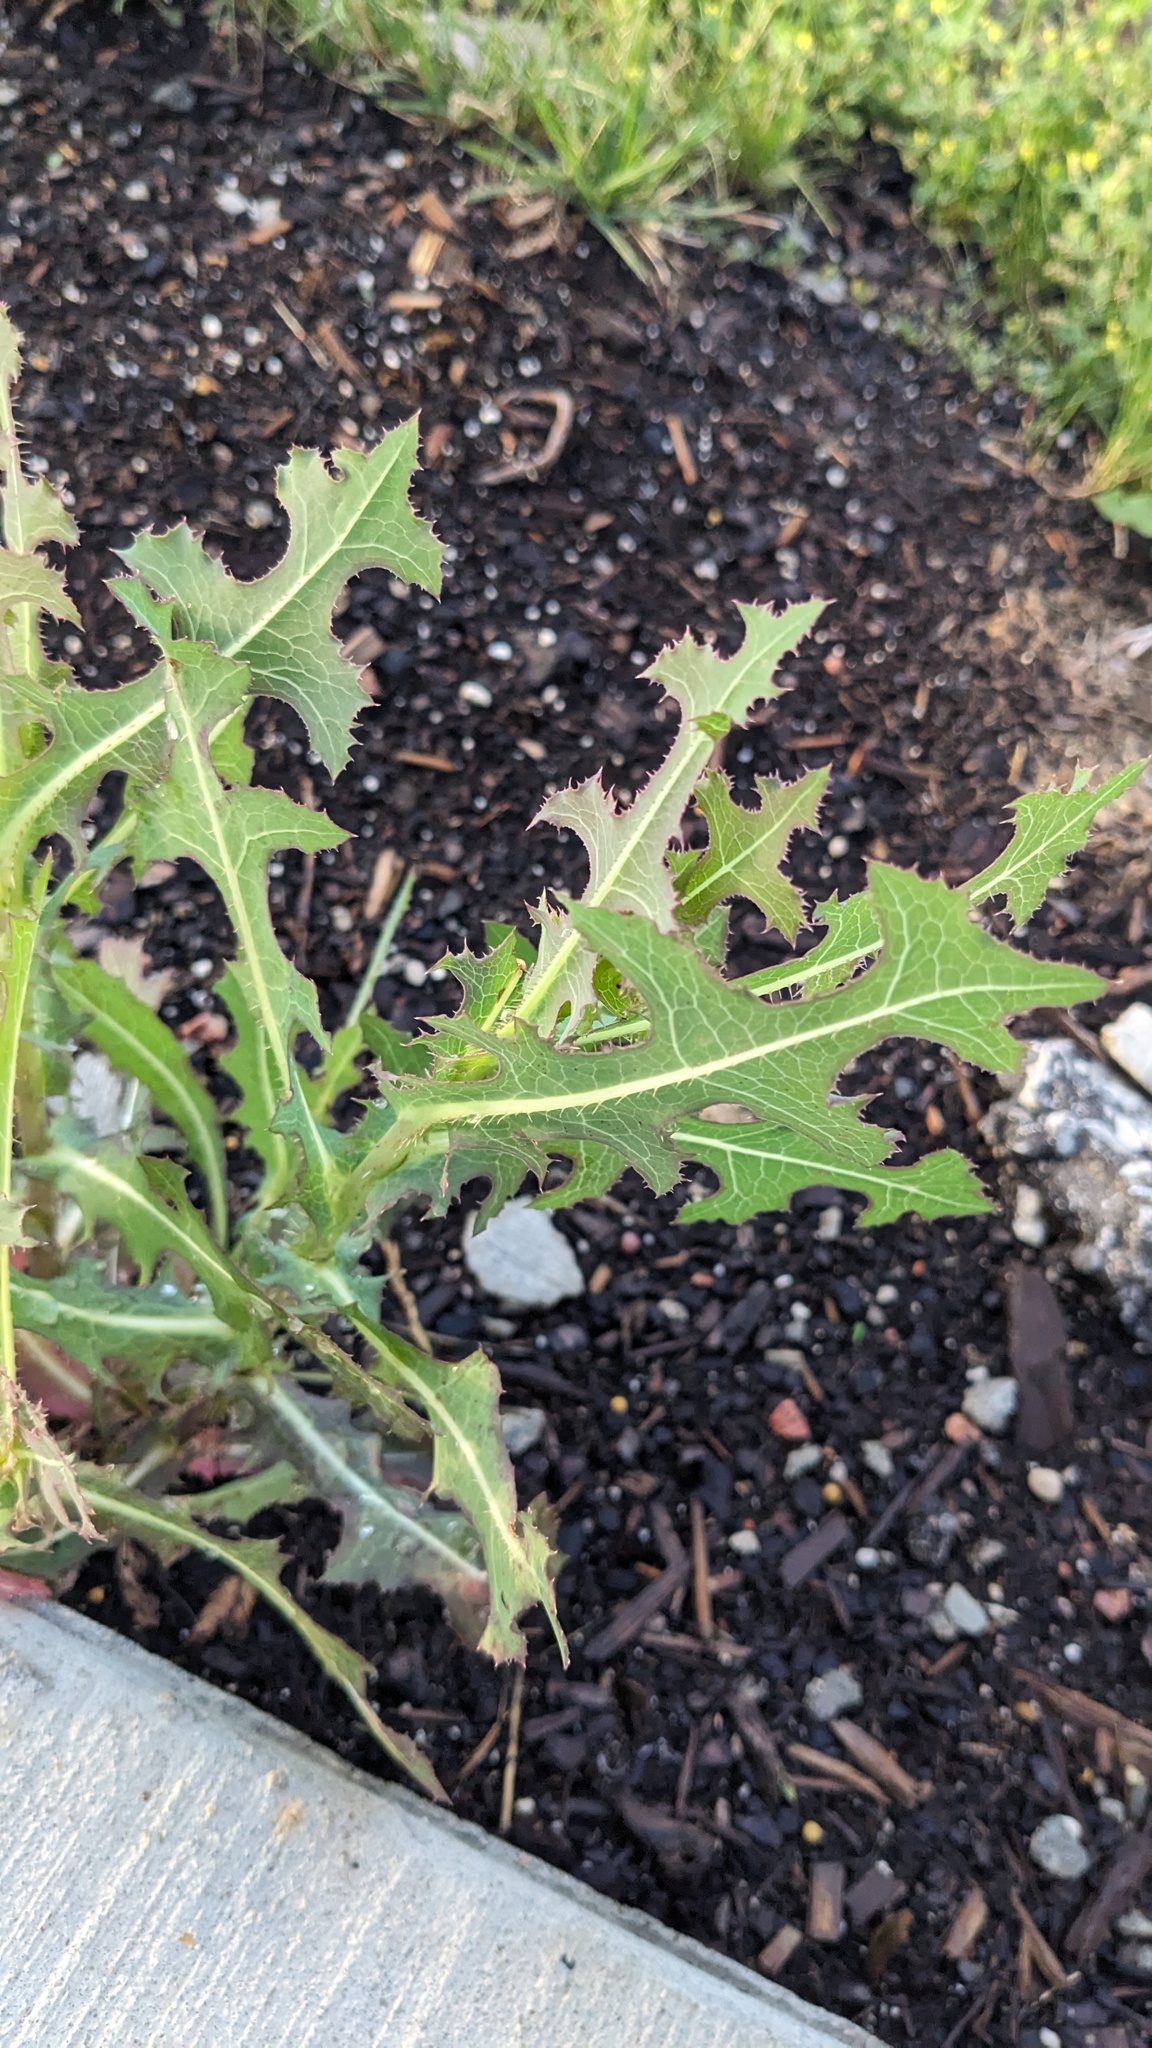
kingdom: Plantae
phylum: Tracheophyta
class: Magnoliopsida
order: Asterales
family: Asteraceae
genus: Lactuca
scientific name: Lactuca serriola
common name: Prickly lettuce
